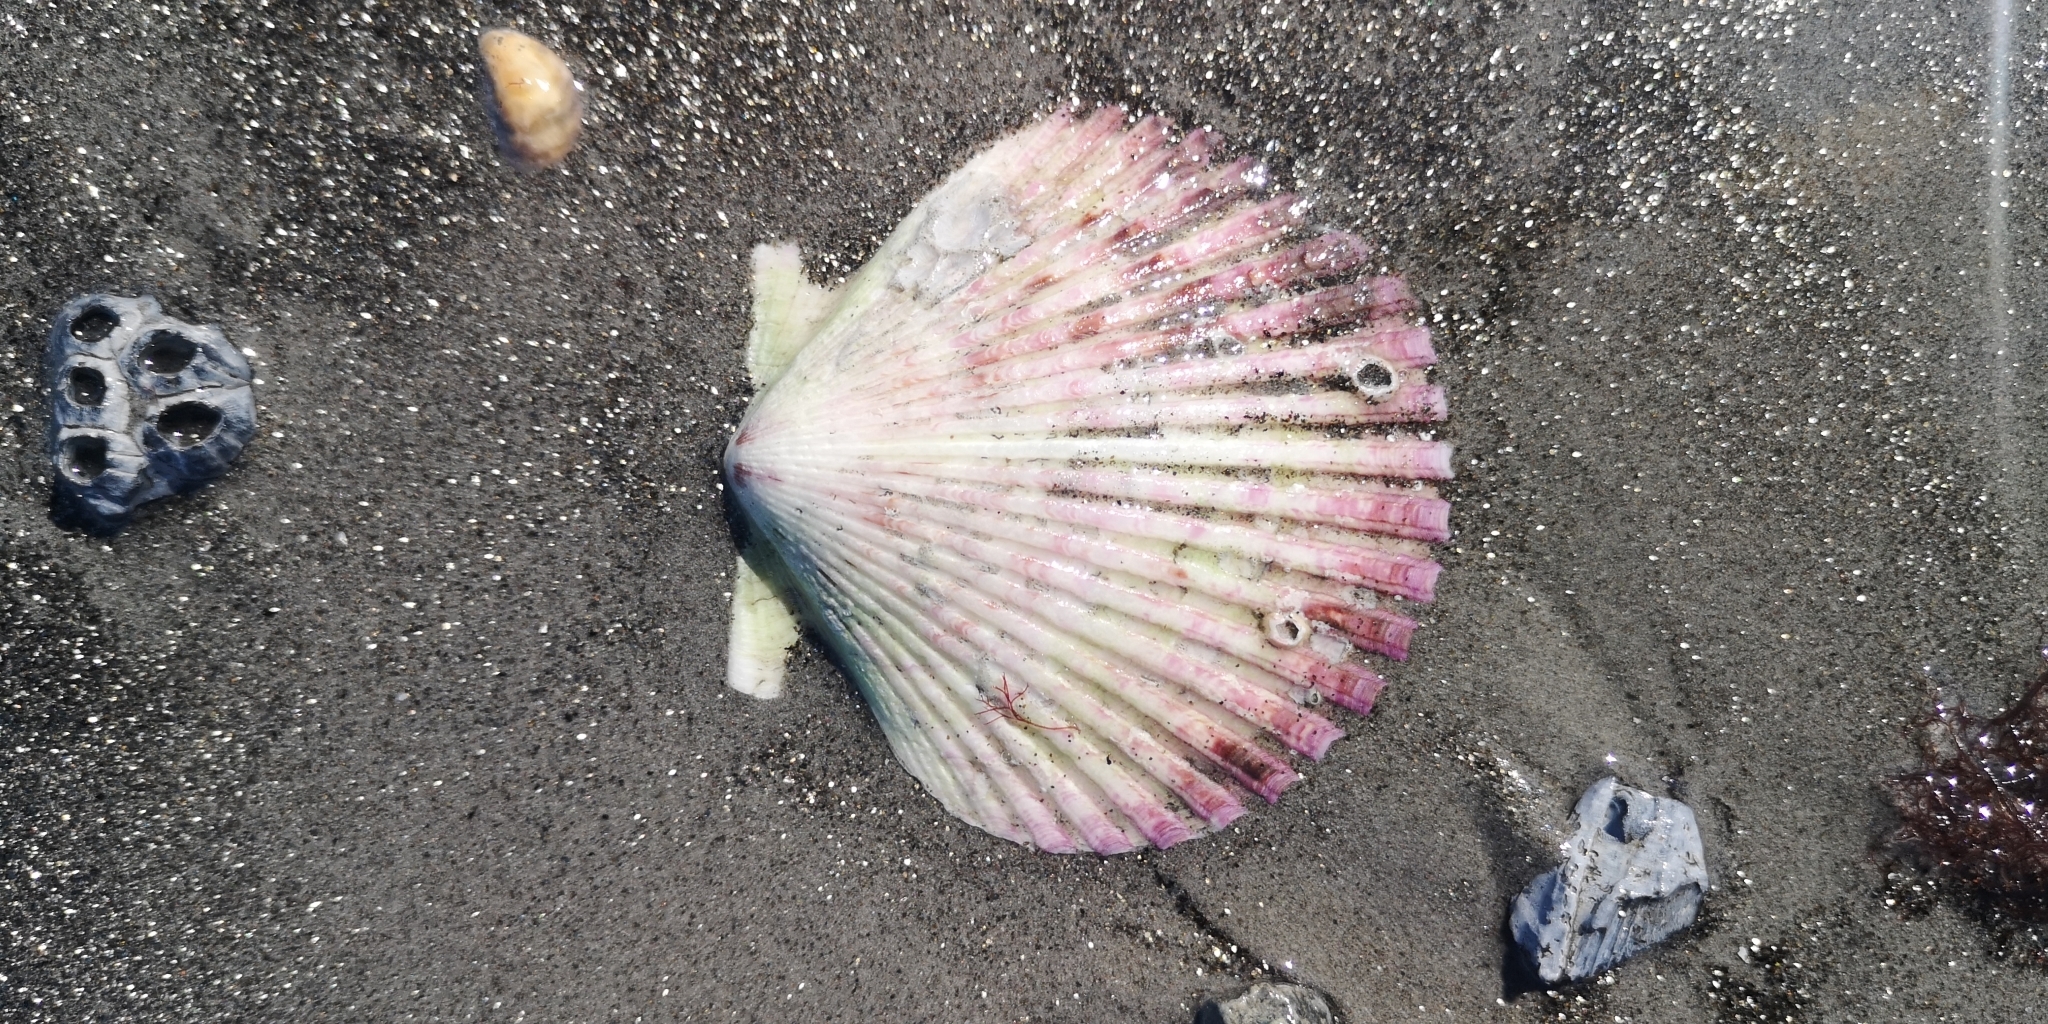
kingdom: Animalia
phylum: Mollusca
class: Bivalvia
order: Pectinida
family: Pectinidae
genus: Argopecten
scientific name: Argopecten purpuratus
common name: Peruvian scallop
